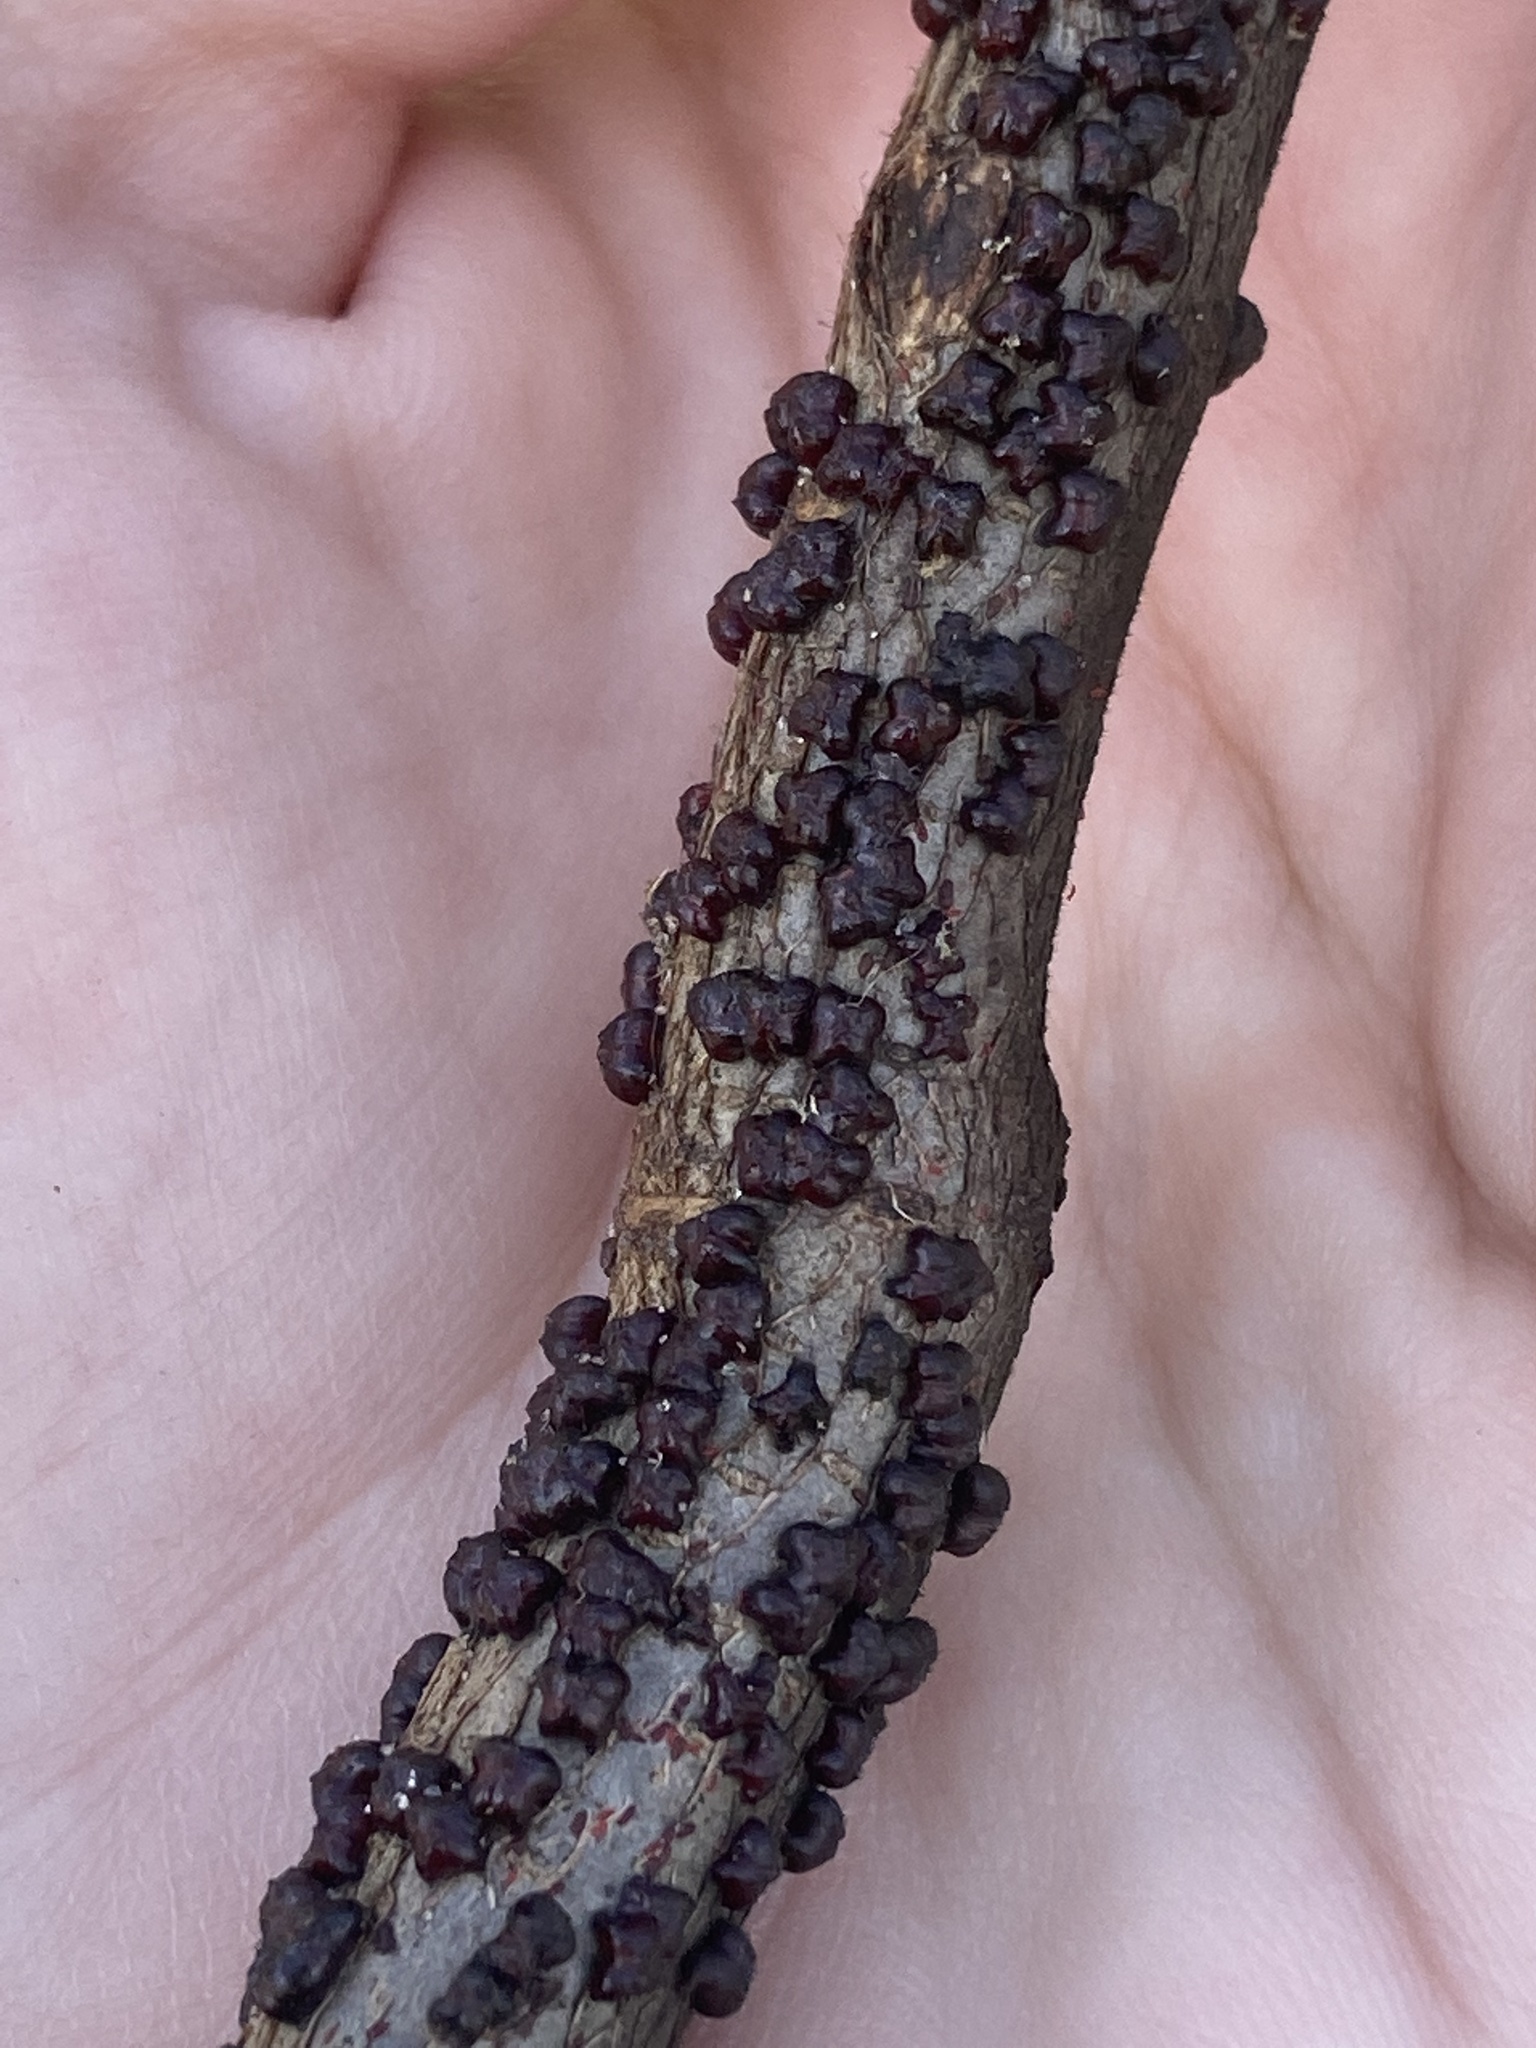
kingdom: Animalia
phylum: Arthropoda
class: Insecta
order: Hemiptera
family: Kerriidae
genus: Paratachardina
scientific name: Paratachardina pseudolobata
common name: Lobate lac scale
